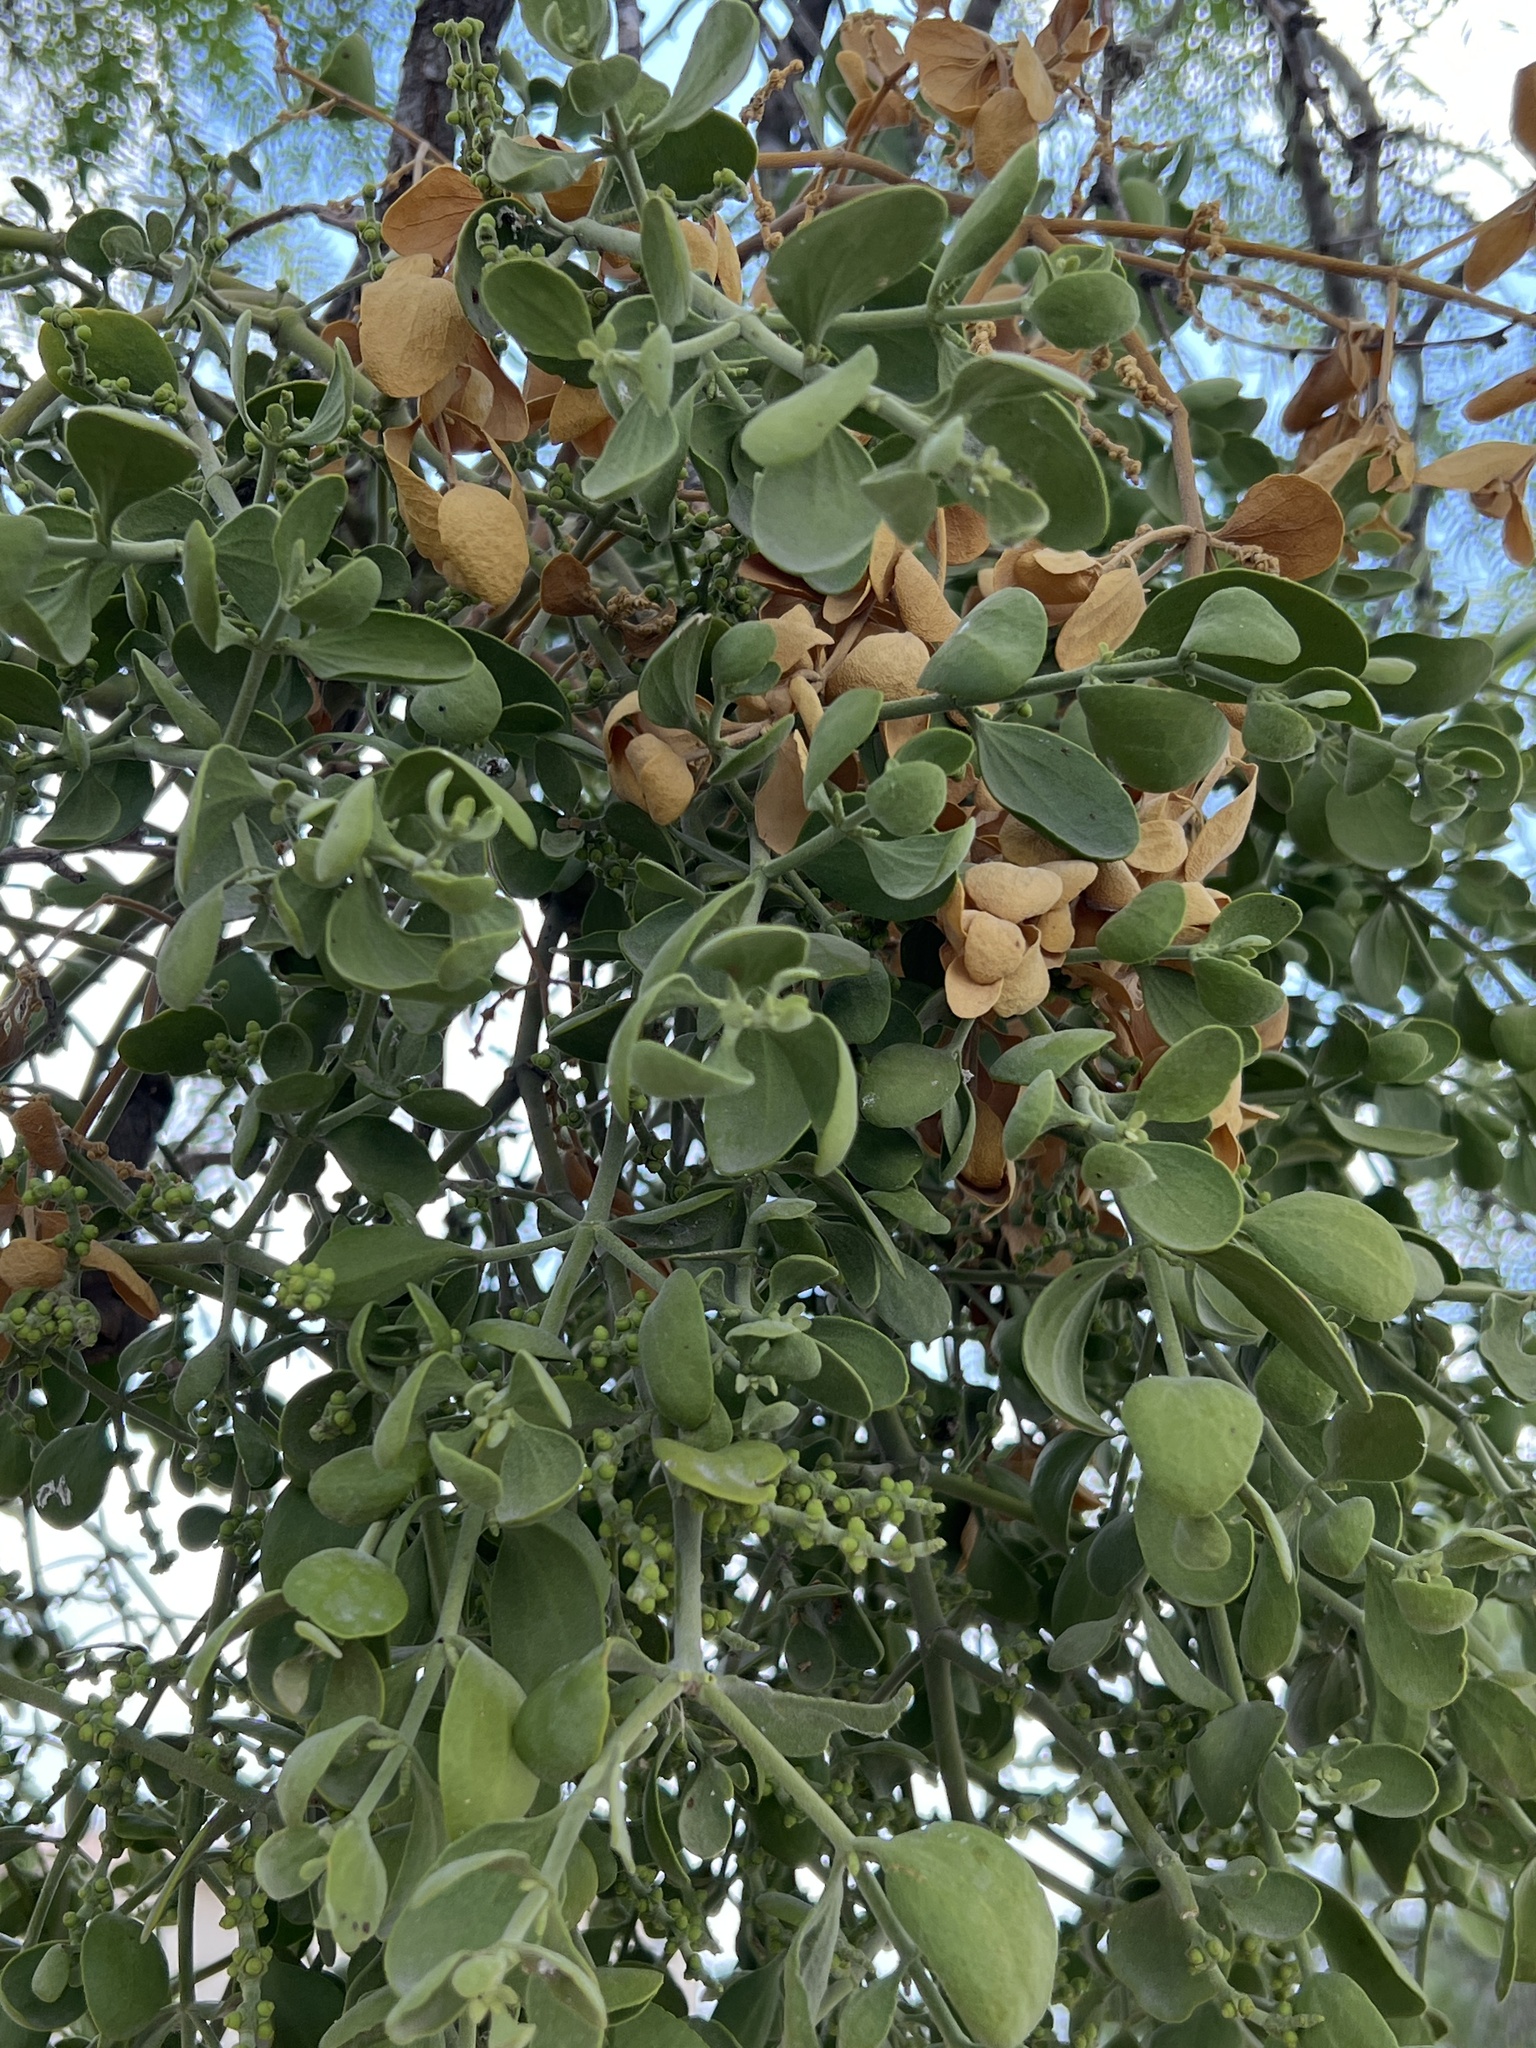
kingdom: Plantae
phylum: Tracheophyta
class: Magnoliopsida
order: Santalales
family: Viscaceae
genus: Phoradendron
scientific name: Phoradendron leucarpum
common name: Pacific mistletoe
